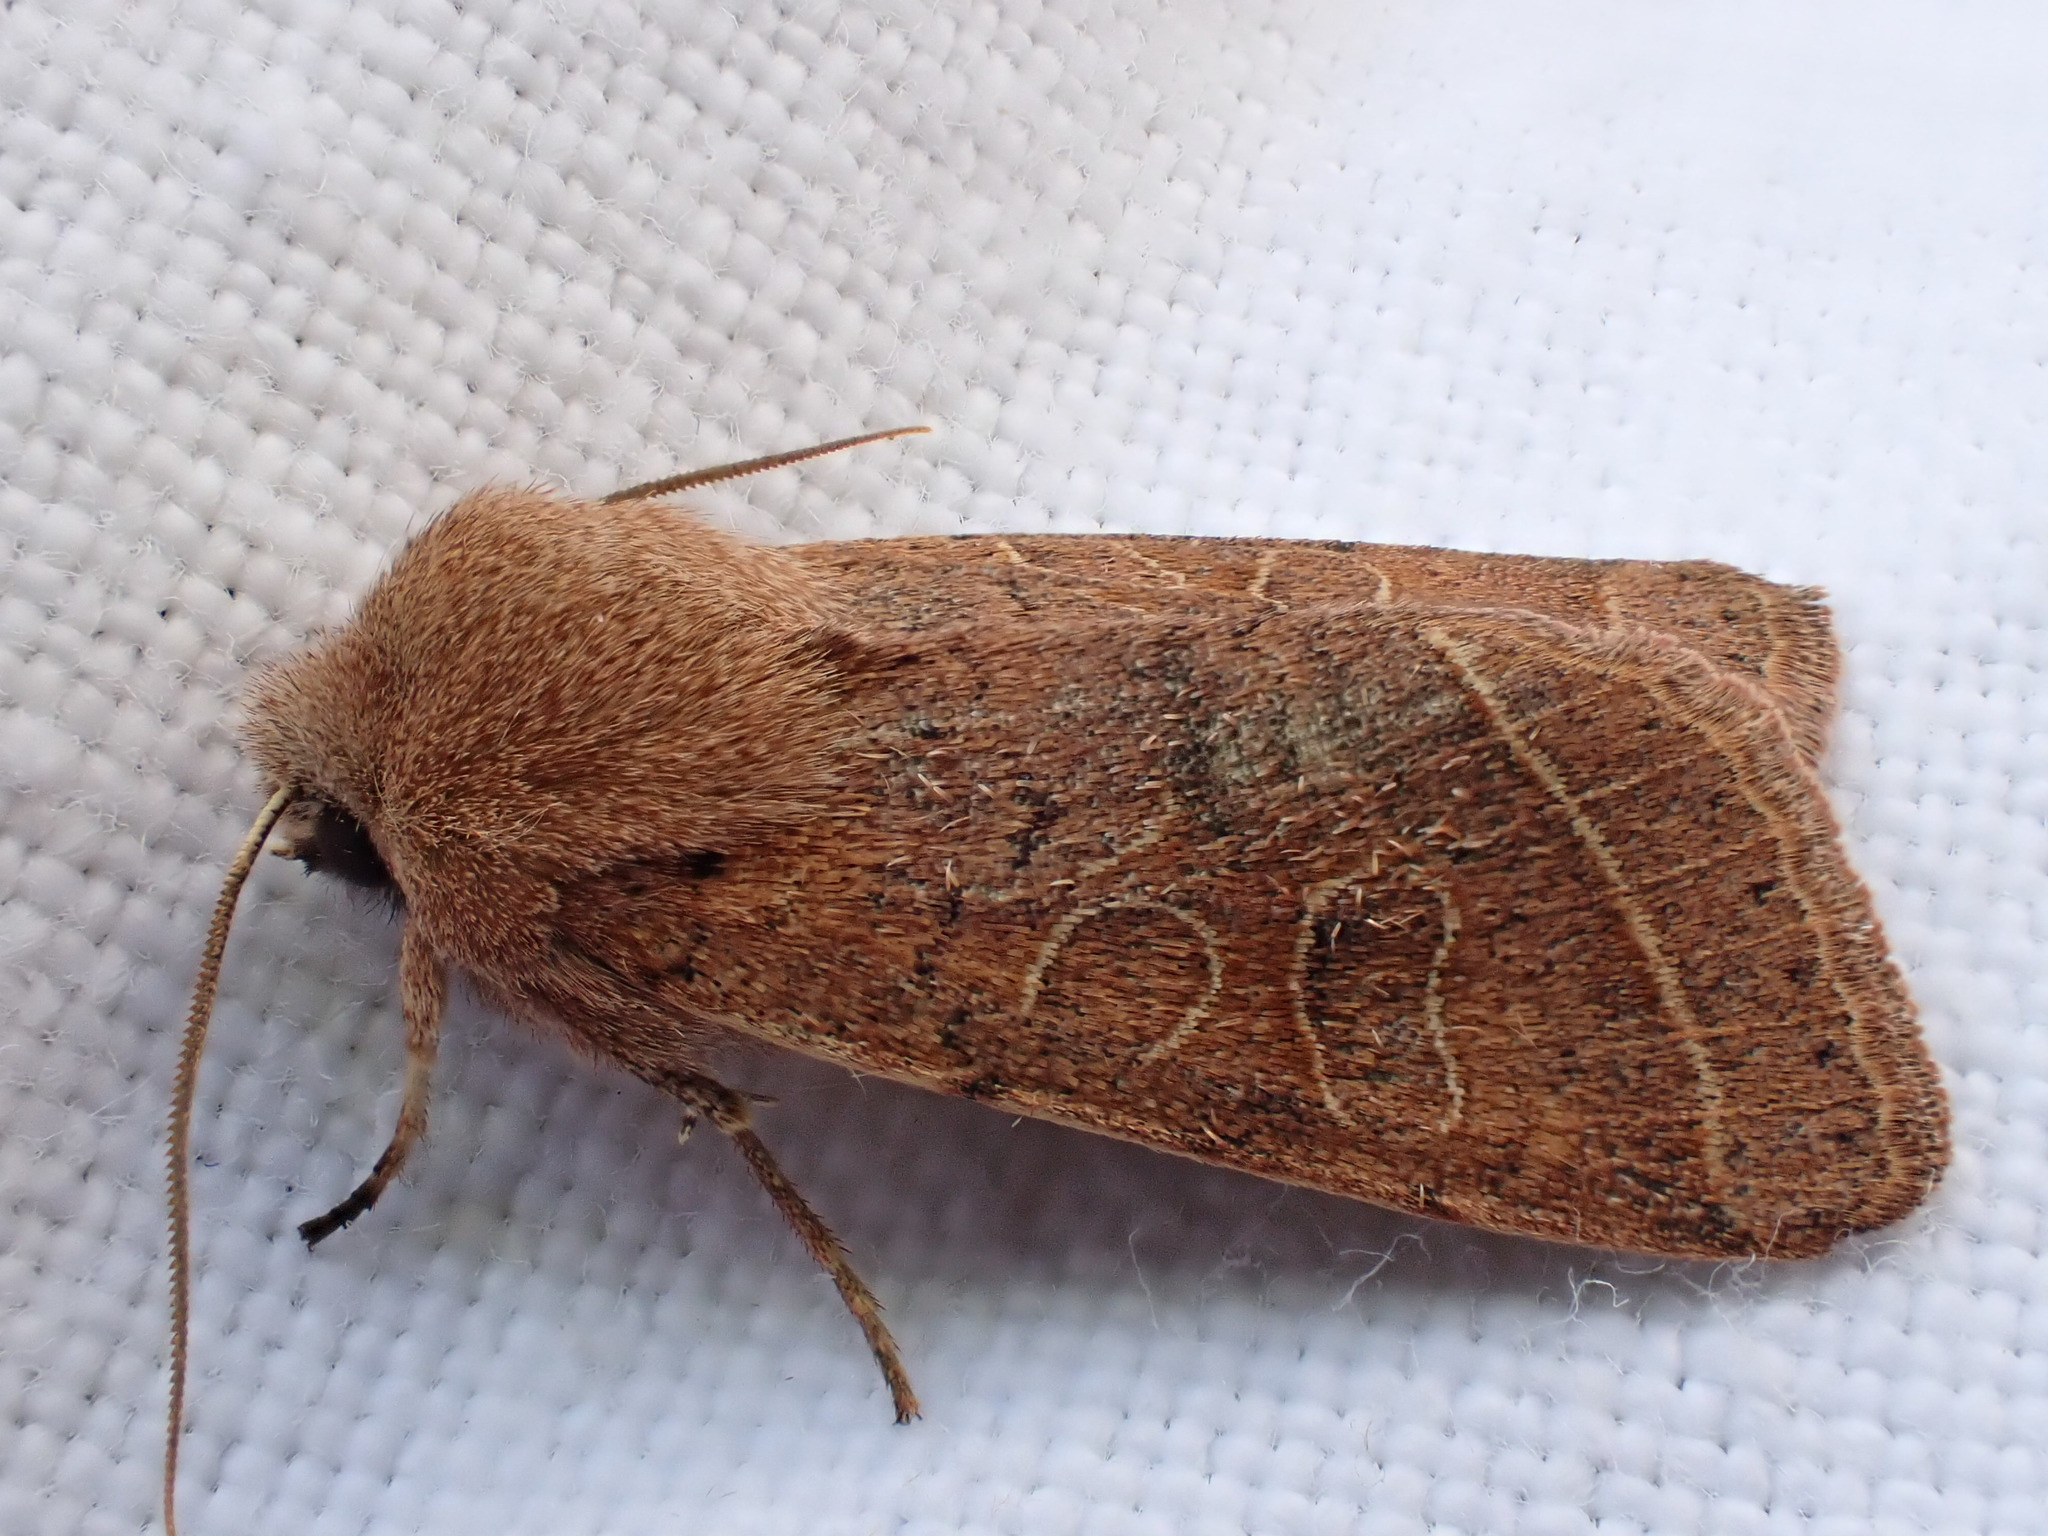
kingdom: Animalia
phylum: Arthropoda
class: Insecta
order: Lepidoptera
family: Noctuidae
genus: Orthosia
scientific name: Orthosia cerasi
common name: Common quaker
